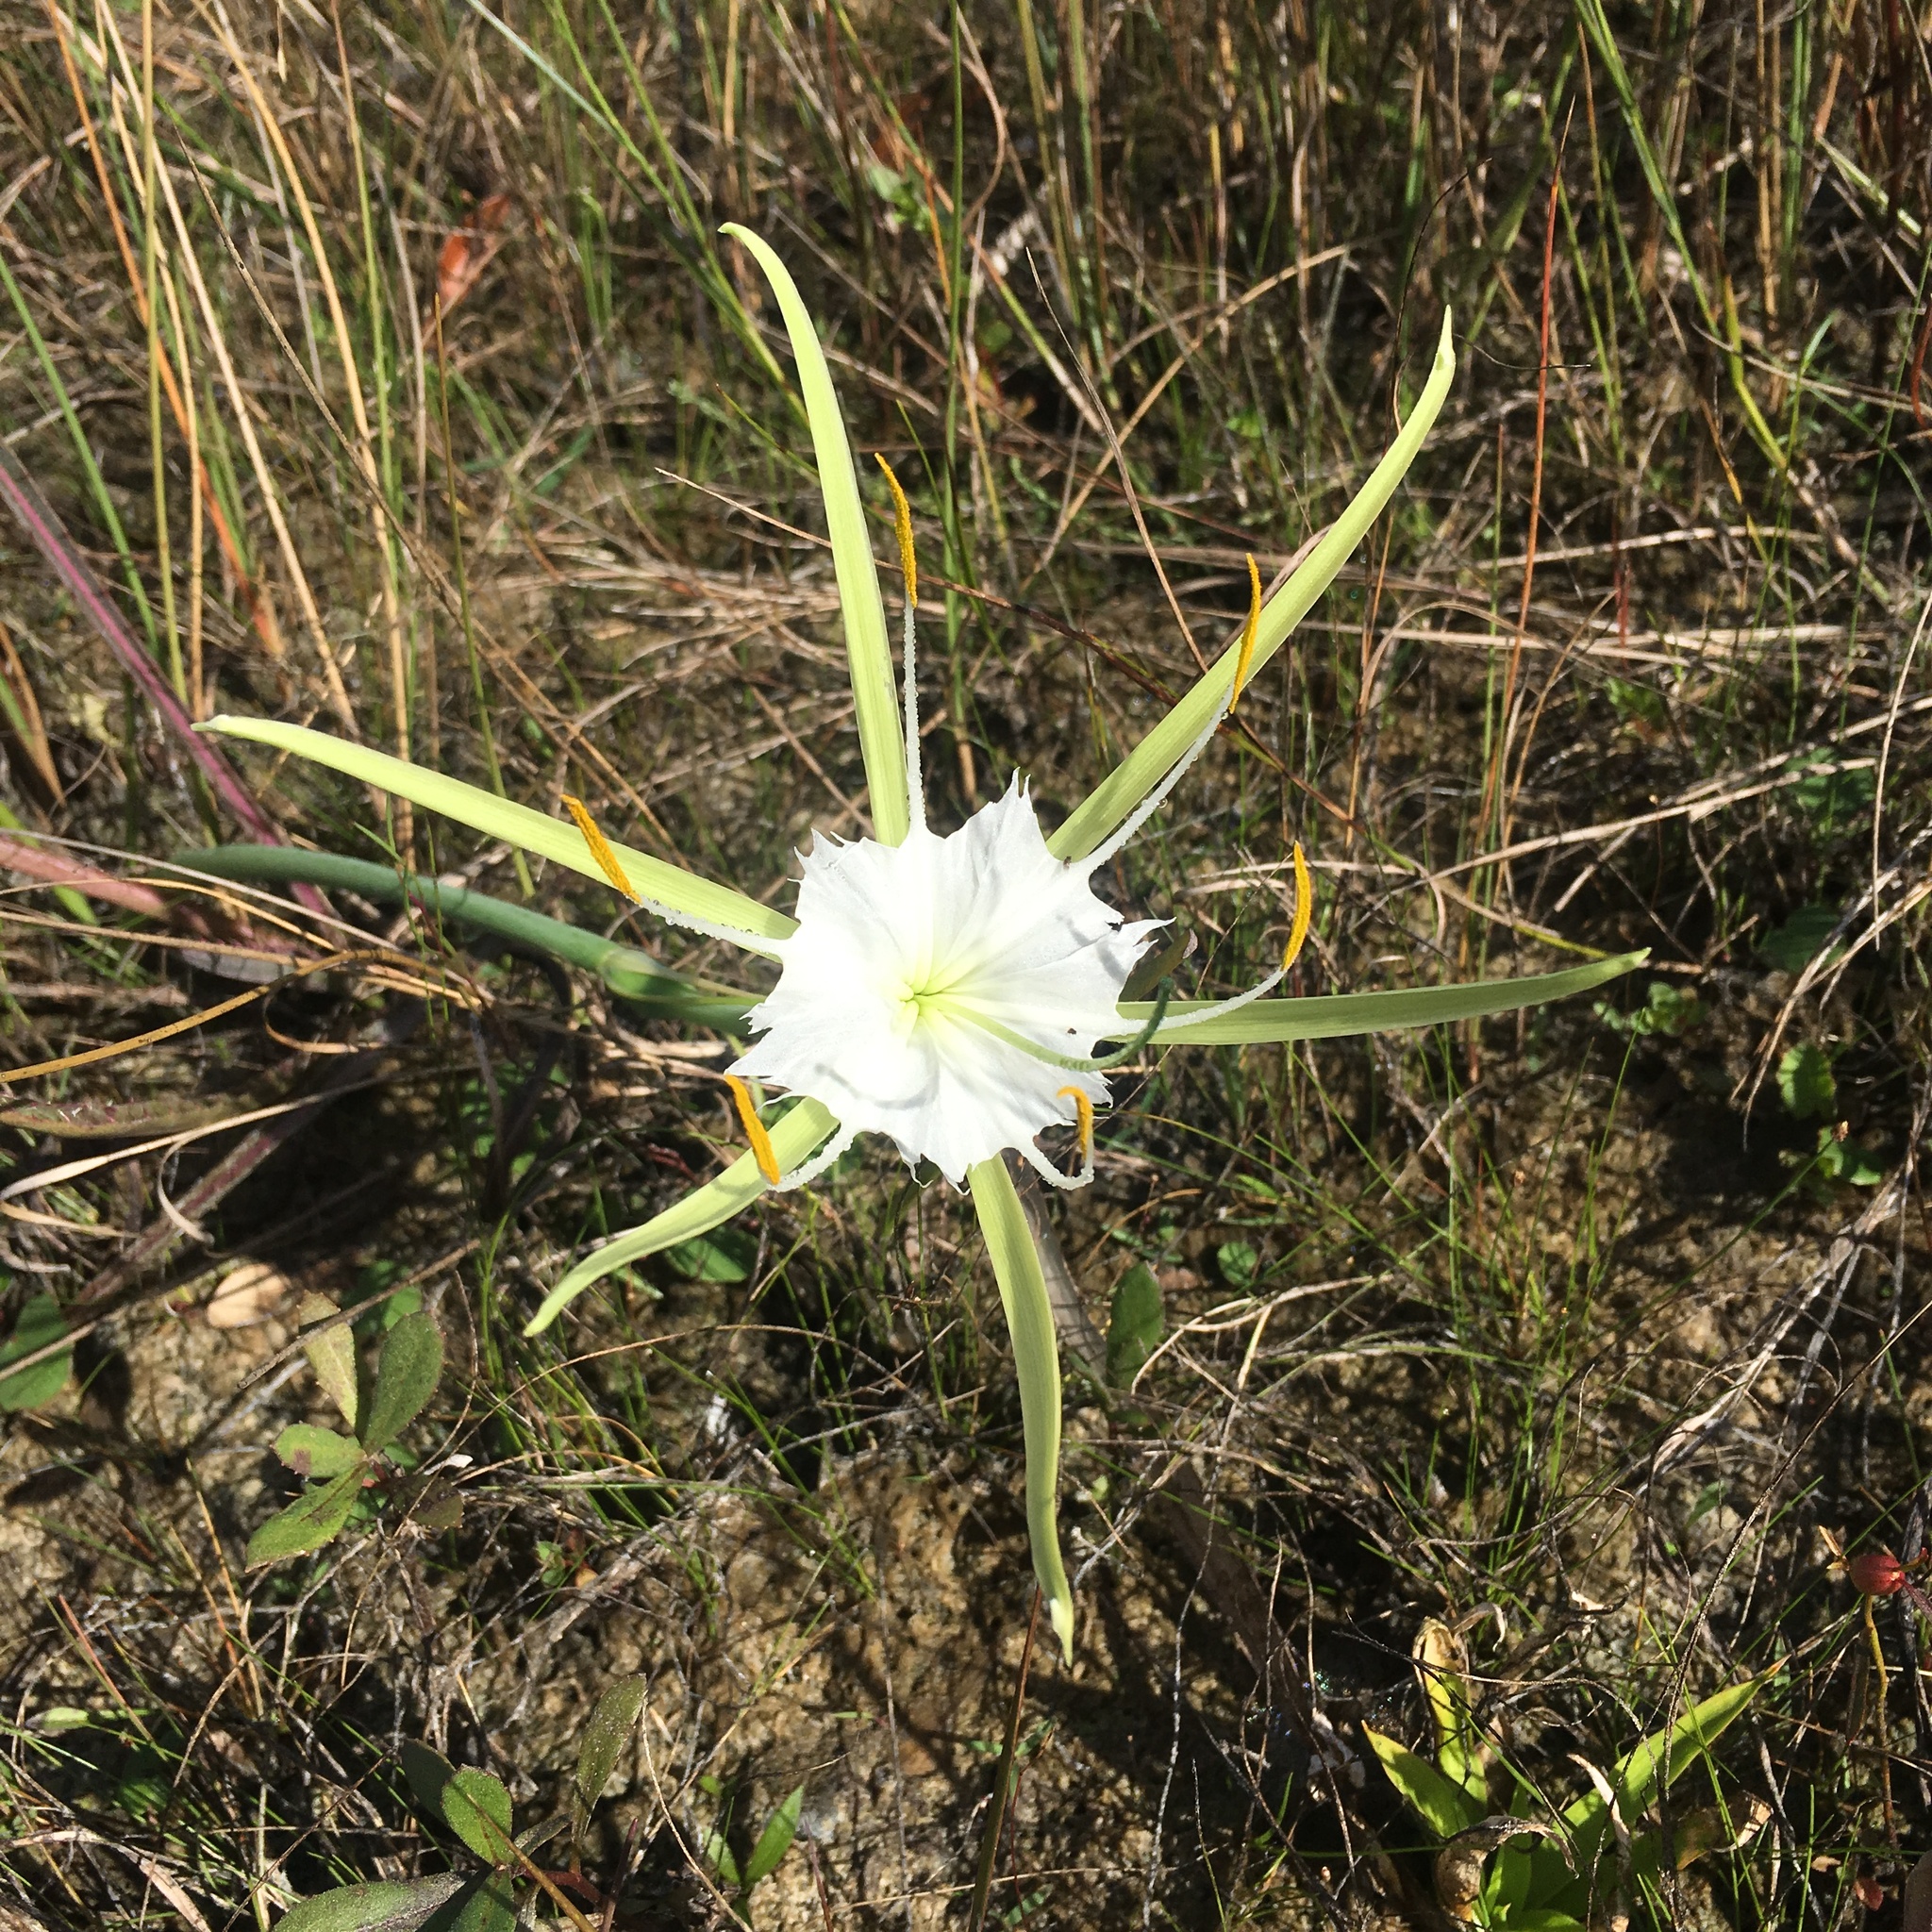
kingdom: Plantae
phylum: Tracheophyta
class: Liliopsida
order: Asparagales
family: Amaryllidaceae
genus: Hymenocallis
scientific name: Hymenocallis palmeri
